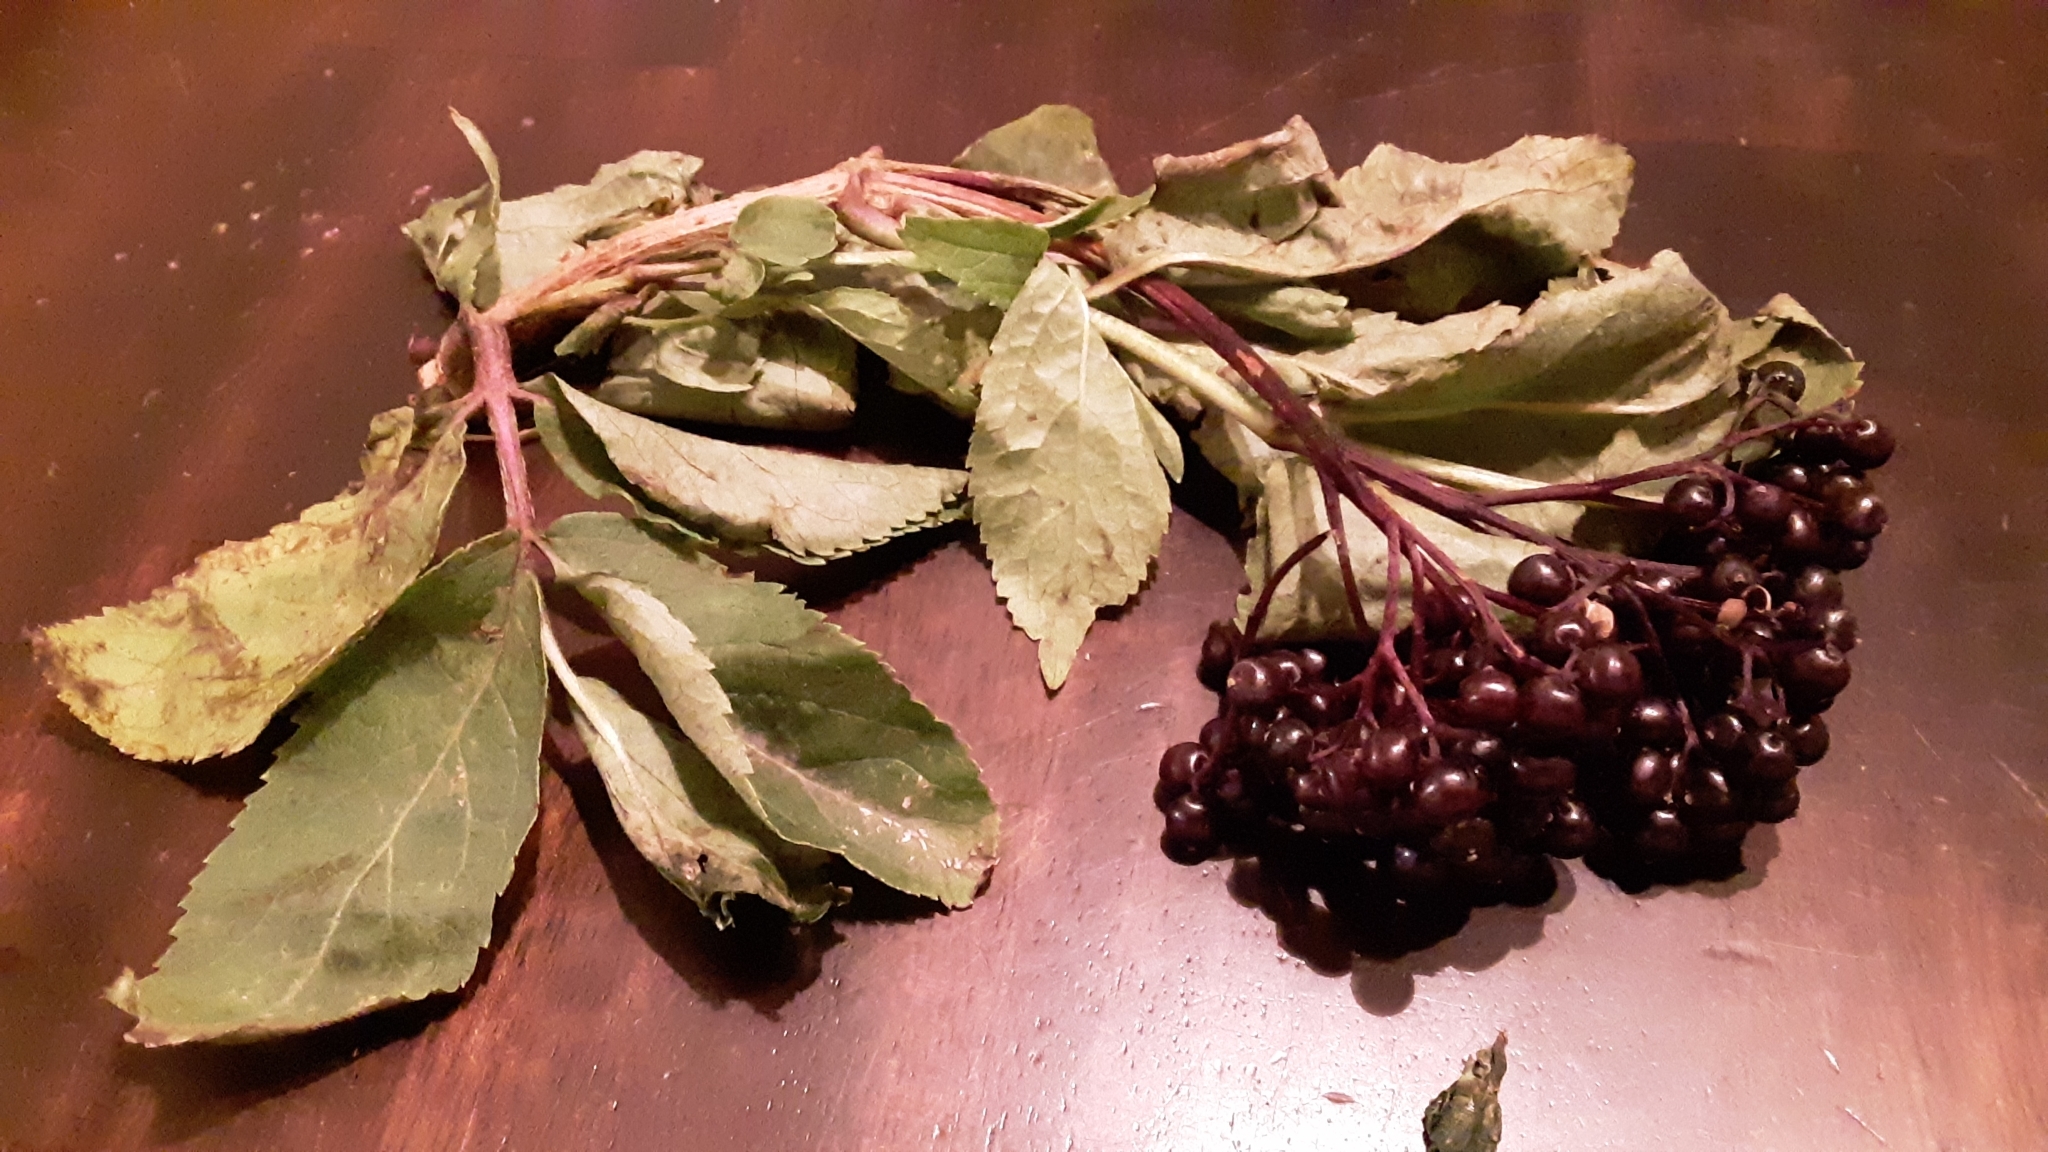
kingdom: Plantae
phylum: Tracheophyta
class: Magnoliopsida
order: Dipsacales
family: Viburnaceae
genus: Sambucus
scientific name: Sambucus racemosa
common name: Red-berried elder
